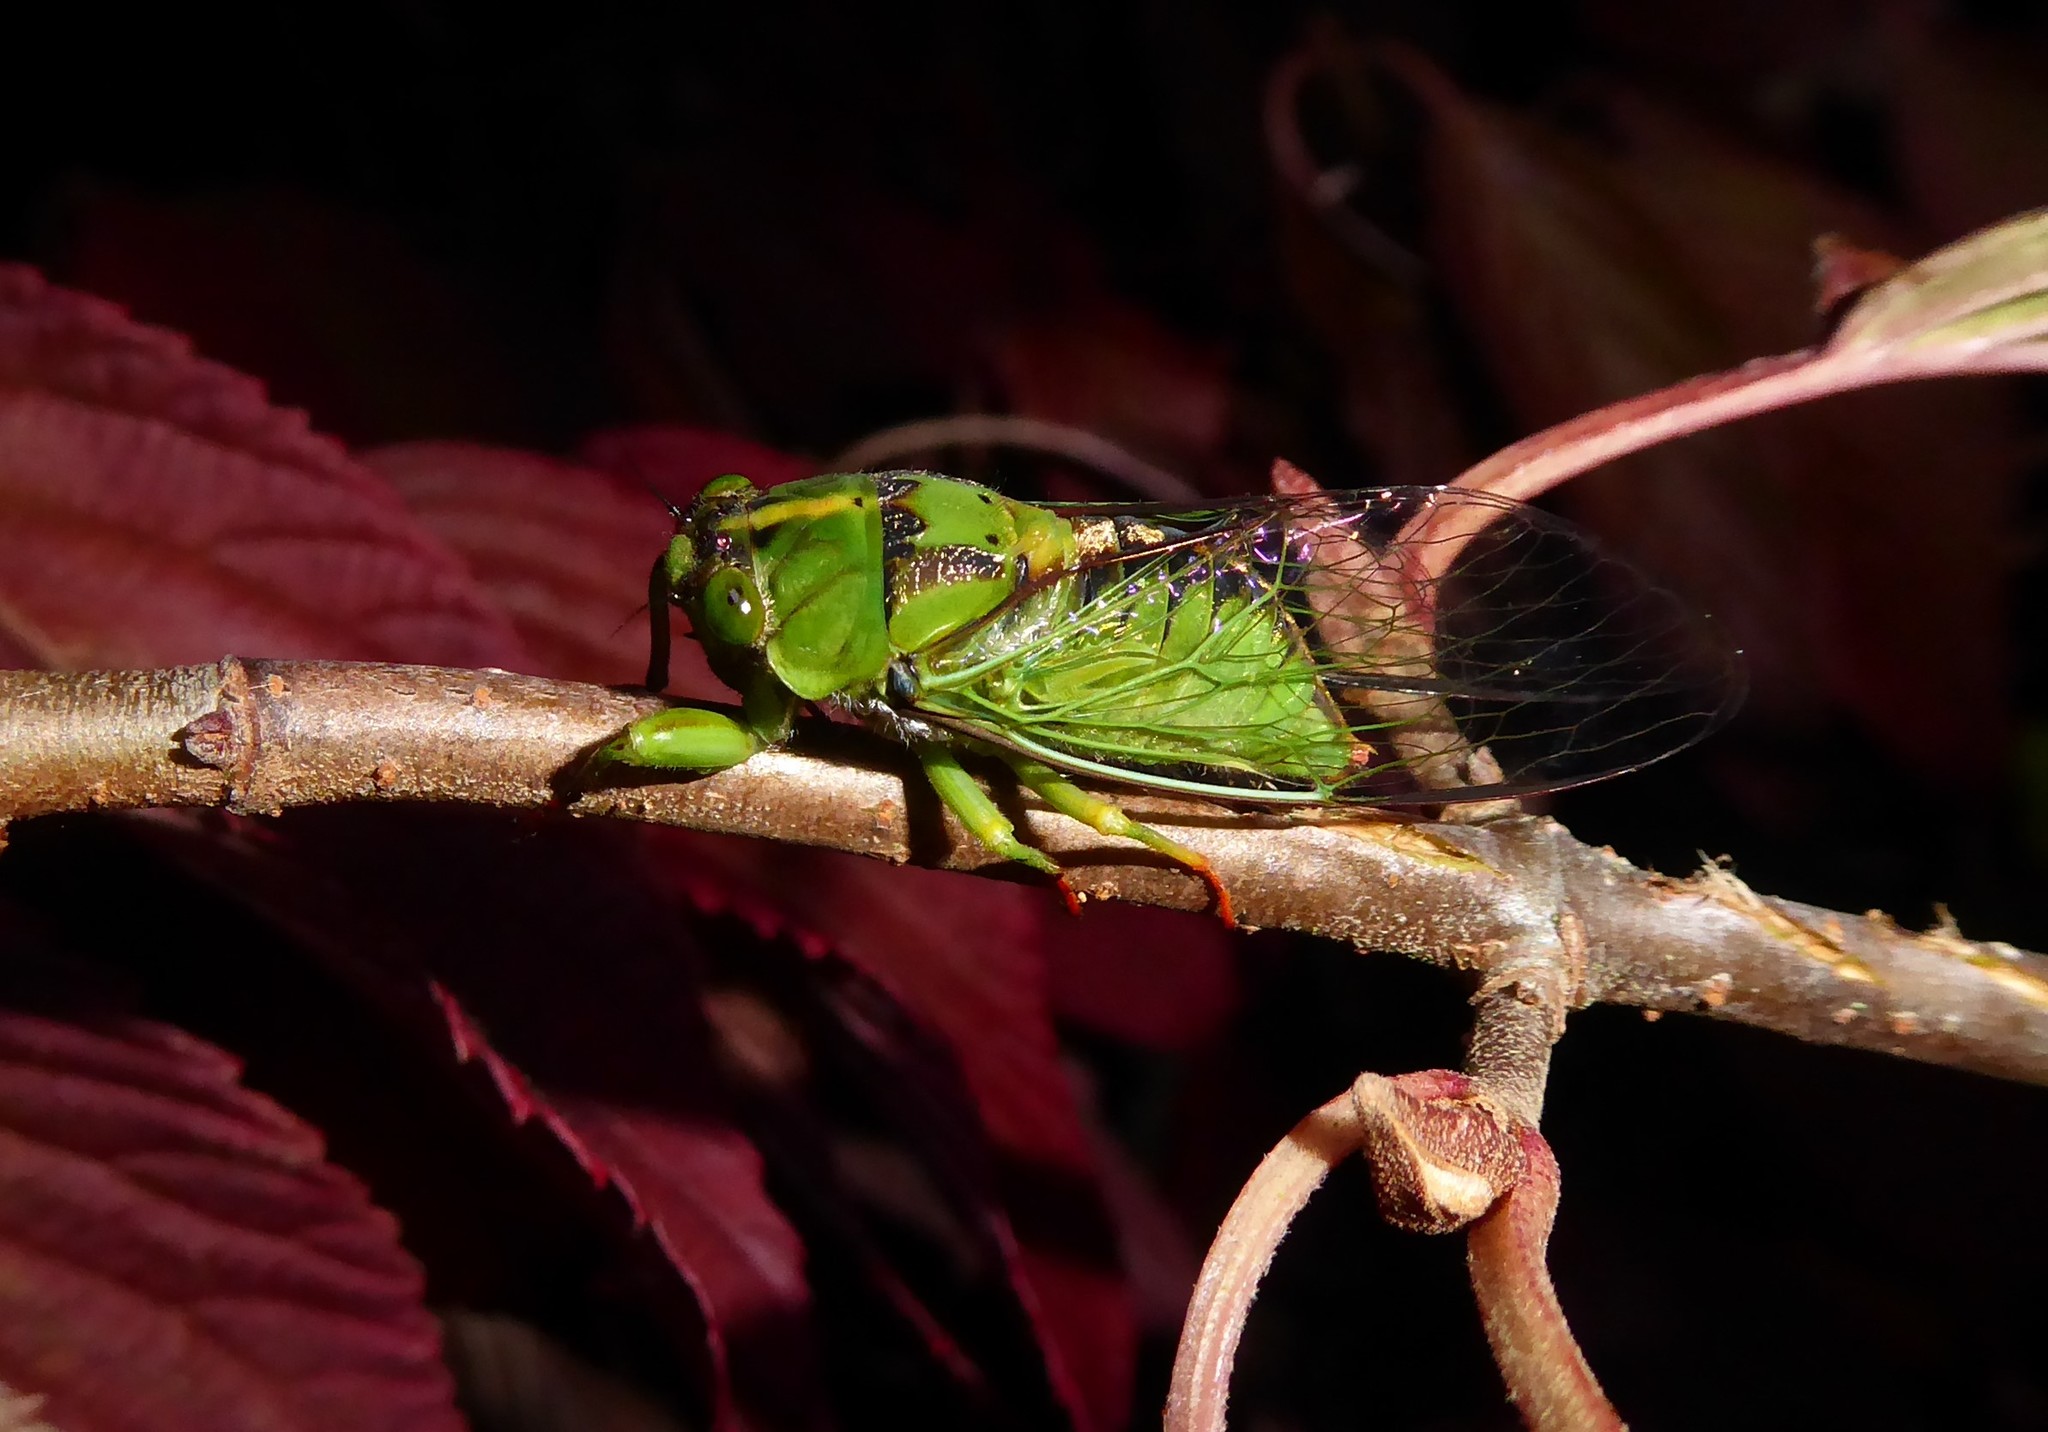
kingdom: Animalia
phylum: Arthropoda
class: Insecta
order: Hemiptera
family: Cicadidae
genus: Kikihia
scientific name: Kikihia subalpina
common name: Chathams cicada
